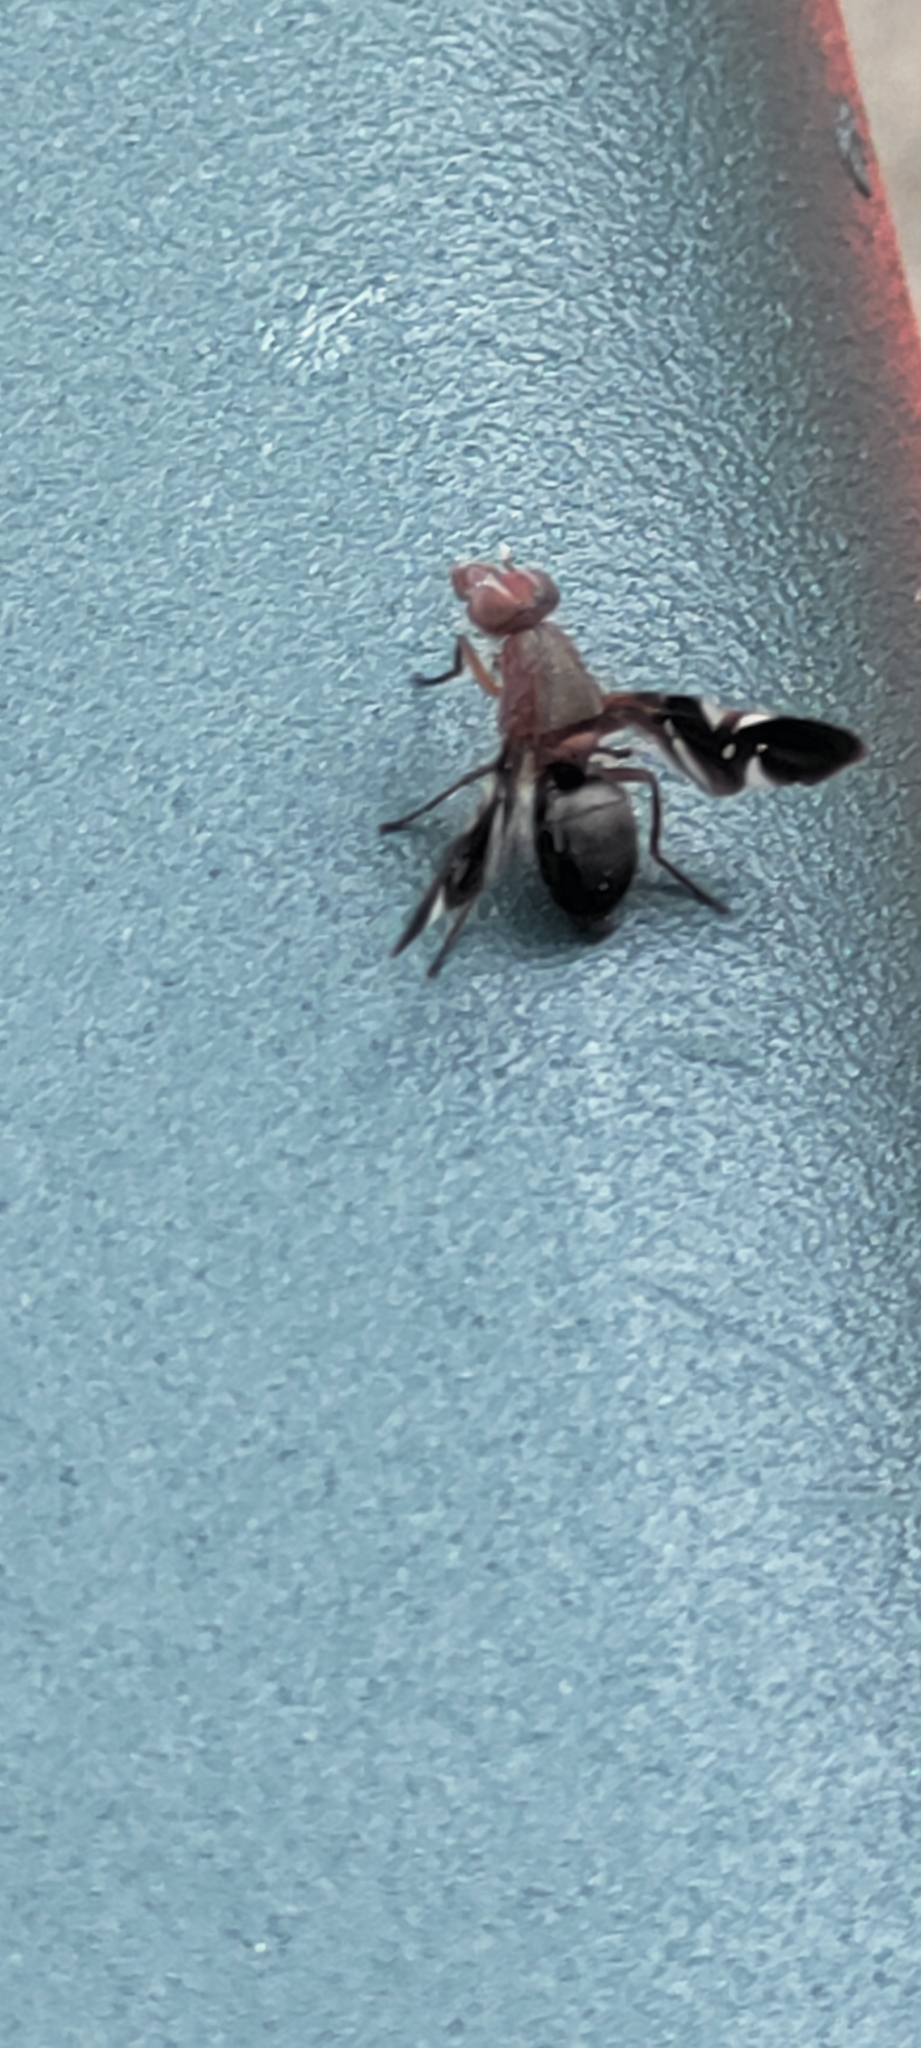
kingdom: Animalia
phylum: Arthropoda
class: Insecta
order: Diptera
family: Ulidiidae
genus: Delphinia
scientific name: Delphinia picta
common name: Common picture-winged fly
